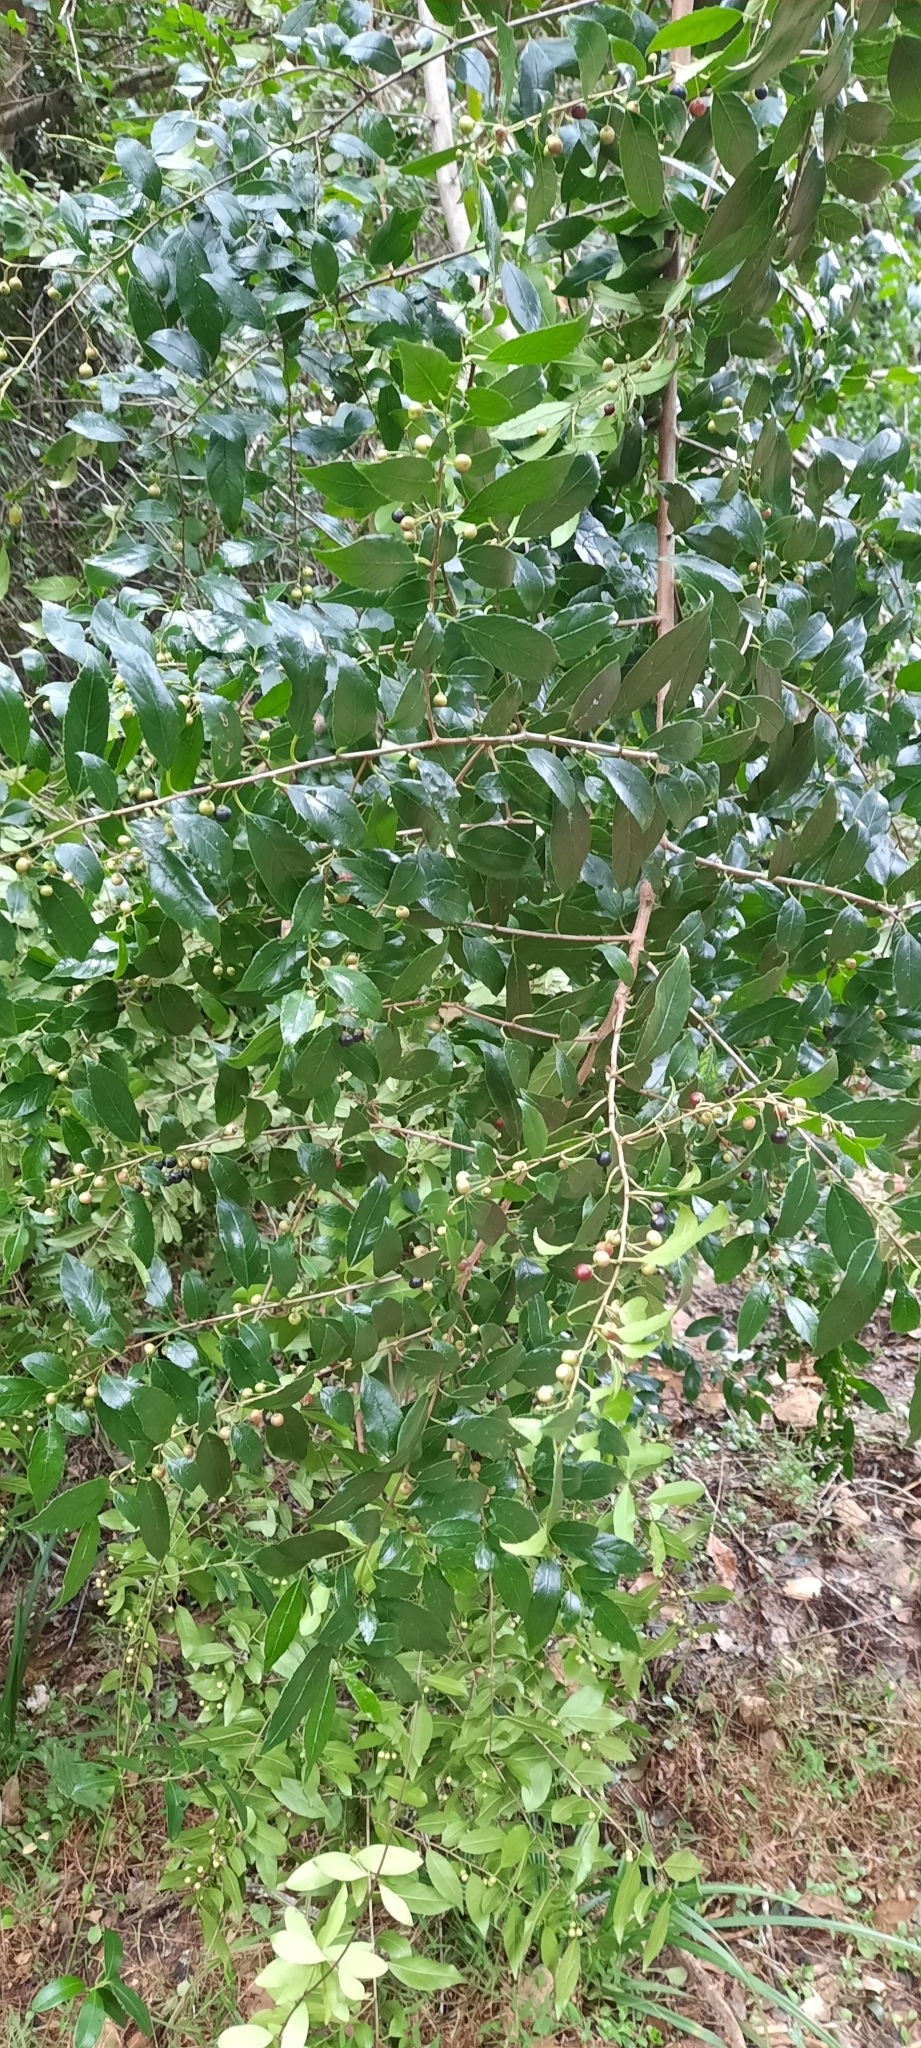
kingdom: Plantae
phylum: Tracheophyta
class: Magnoliopsida
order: Rosales
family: Rhamnaceae
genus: Rhamnus
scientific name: Rhamnus prinoides
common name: Dogwood
